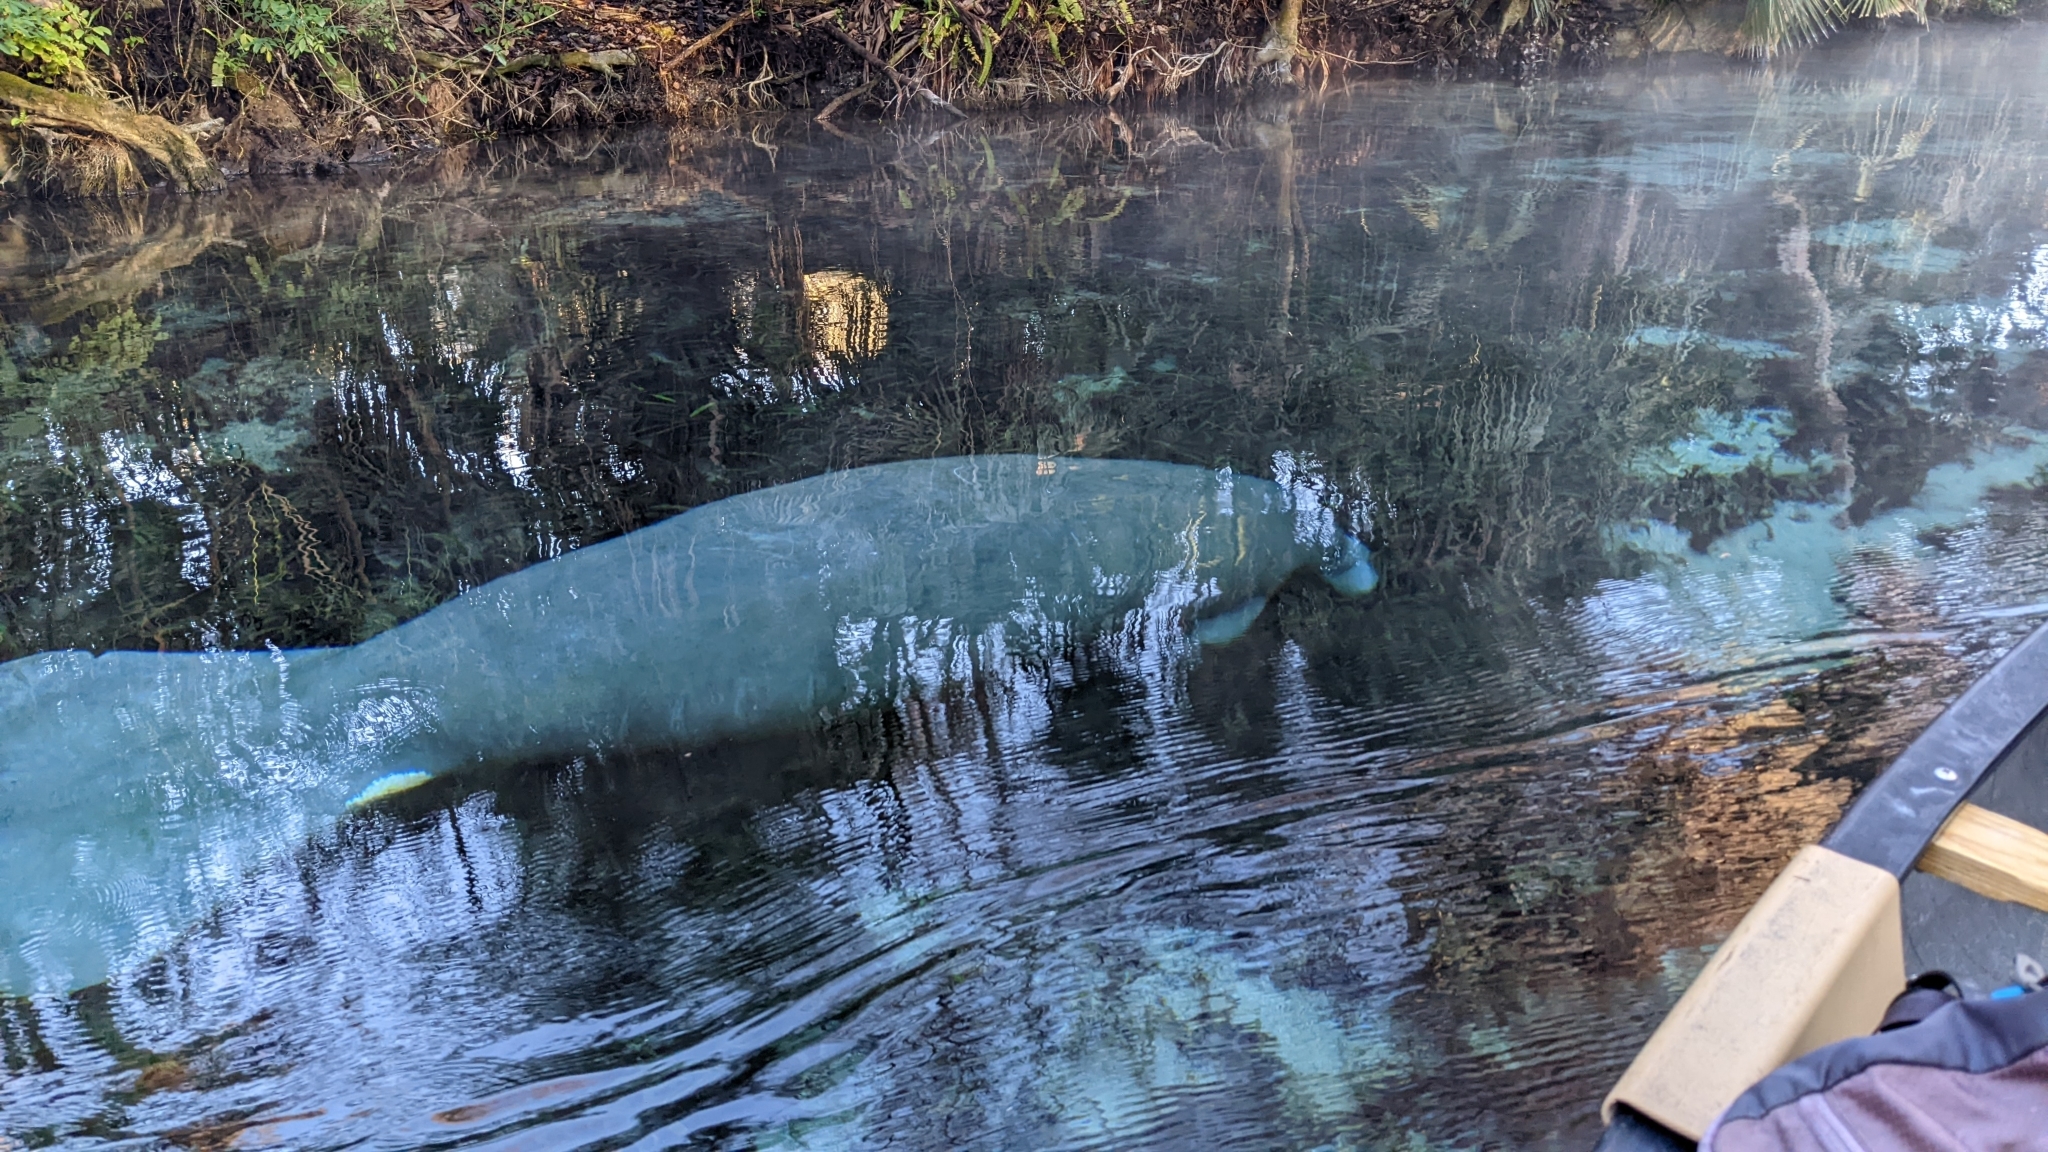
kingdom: Animalia
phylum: Chordata
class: Mammalia
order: Sirenia
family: Trichechidae
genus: Trichechus
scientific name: Trichechus manatus
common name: West indian manatee
